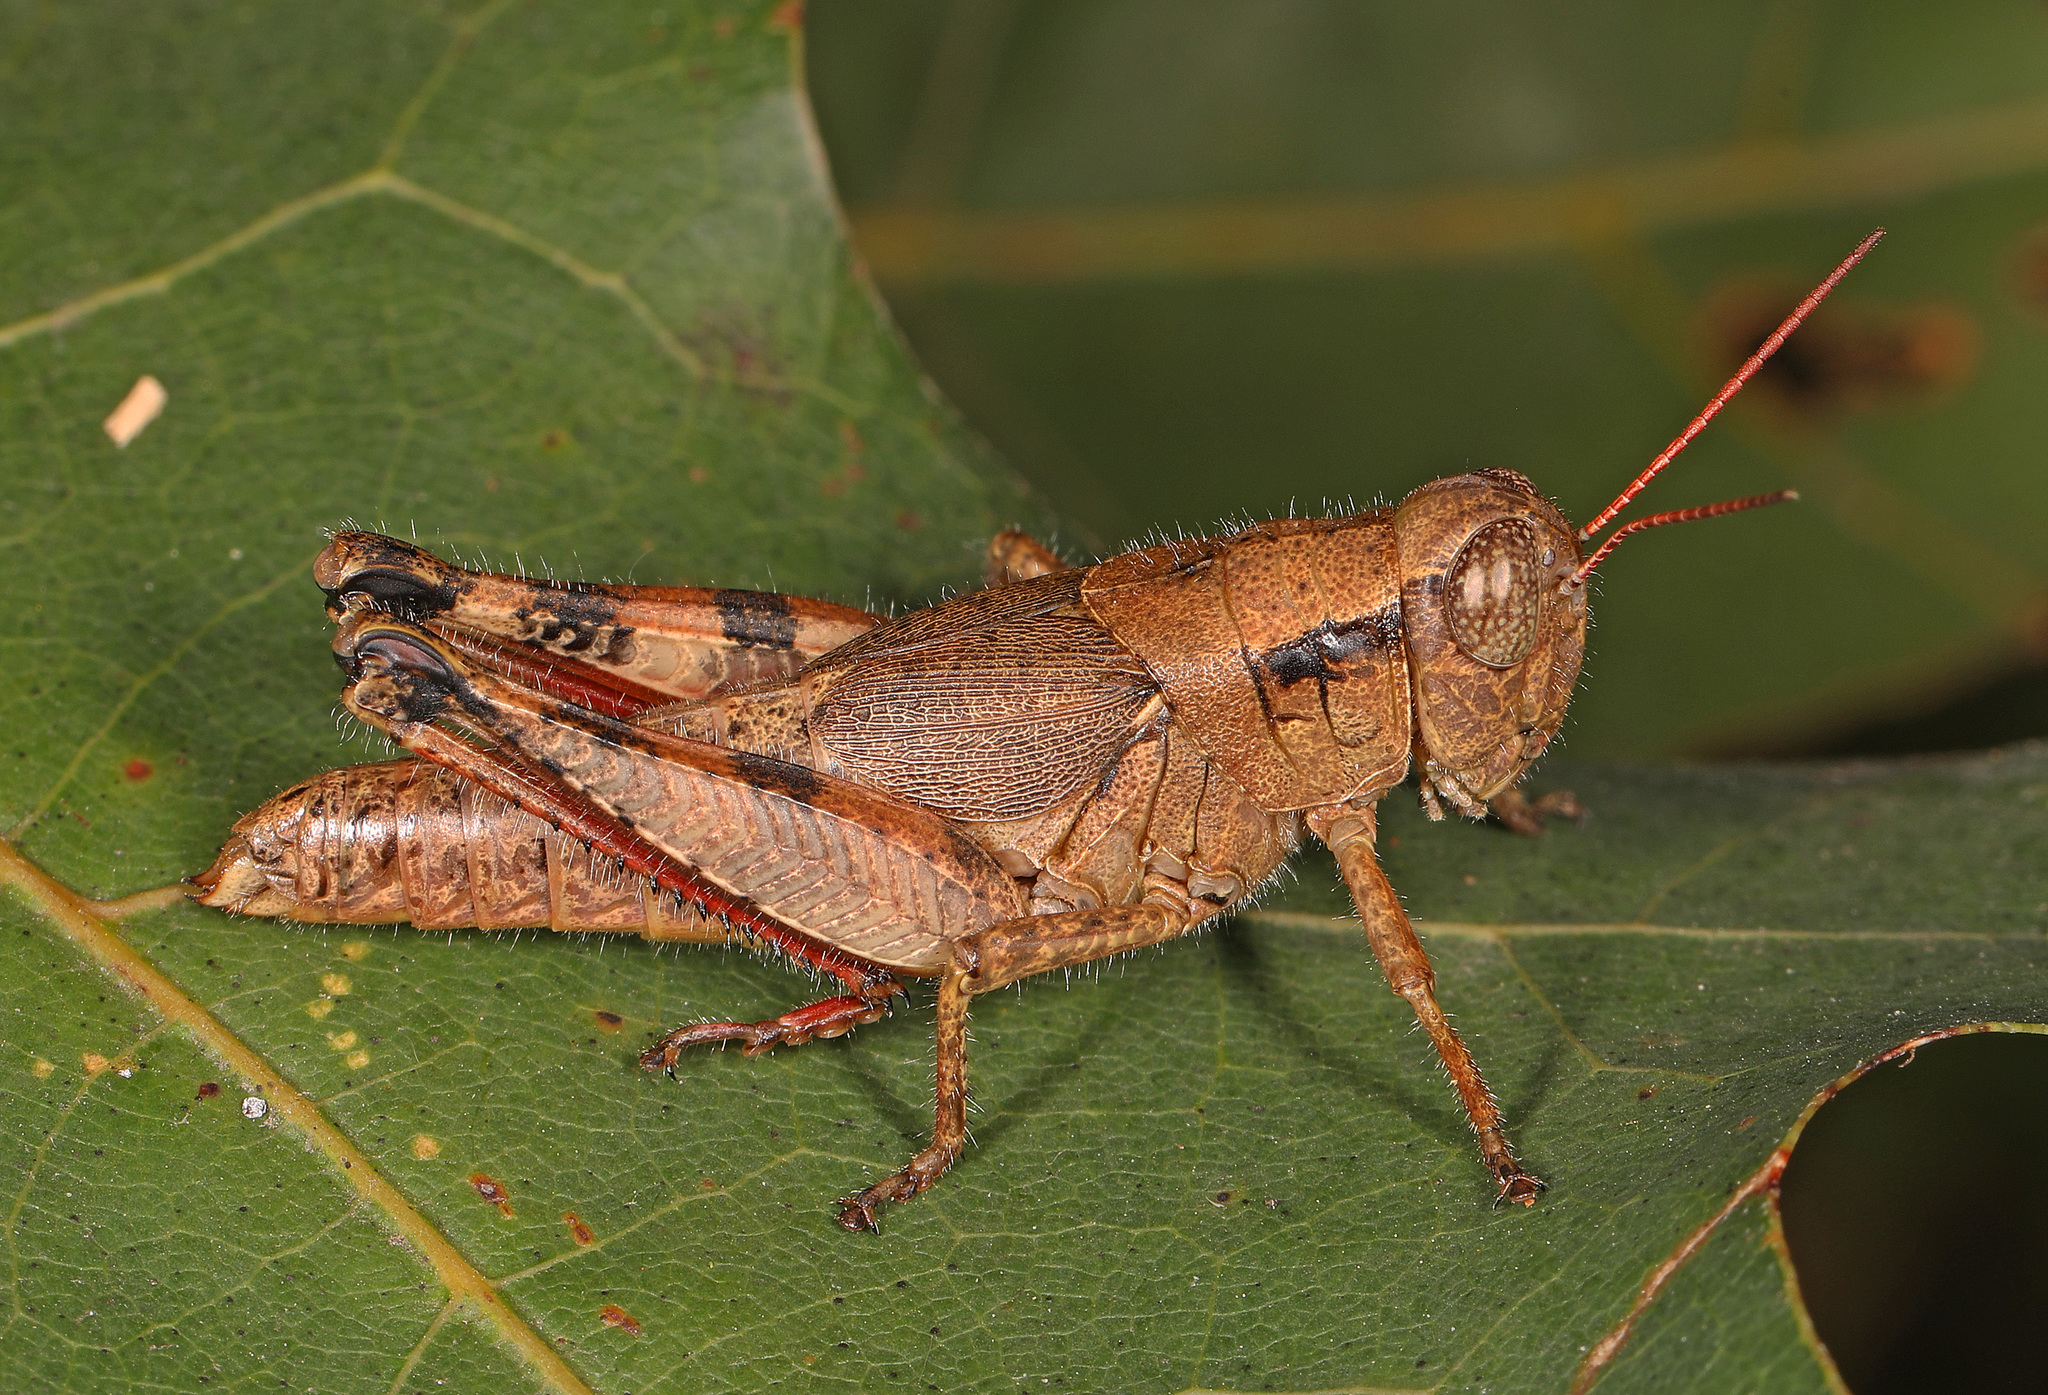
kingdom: Animalia
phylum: Arthropoda
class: Insecta
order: Orthoptera
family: Acrididae
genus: Melanoplus
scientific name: Melanoplus scudderi
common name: Scudder's short-winged locust
